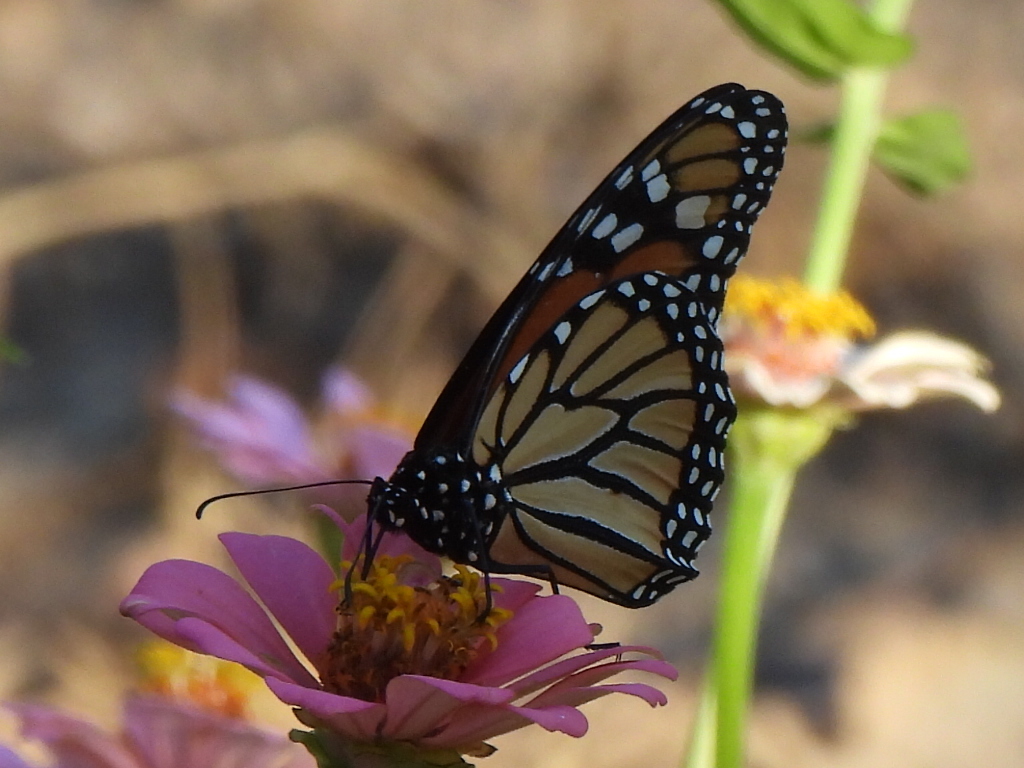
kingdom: Animalia
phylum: Arthropoda
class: Insecta
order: Lepidoptera
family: Nymphalidae
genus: Danaus
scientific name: Danaus plexippus
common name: Monarch
